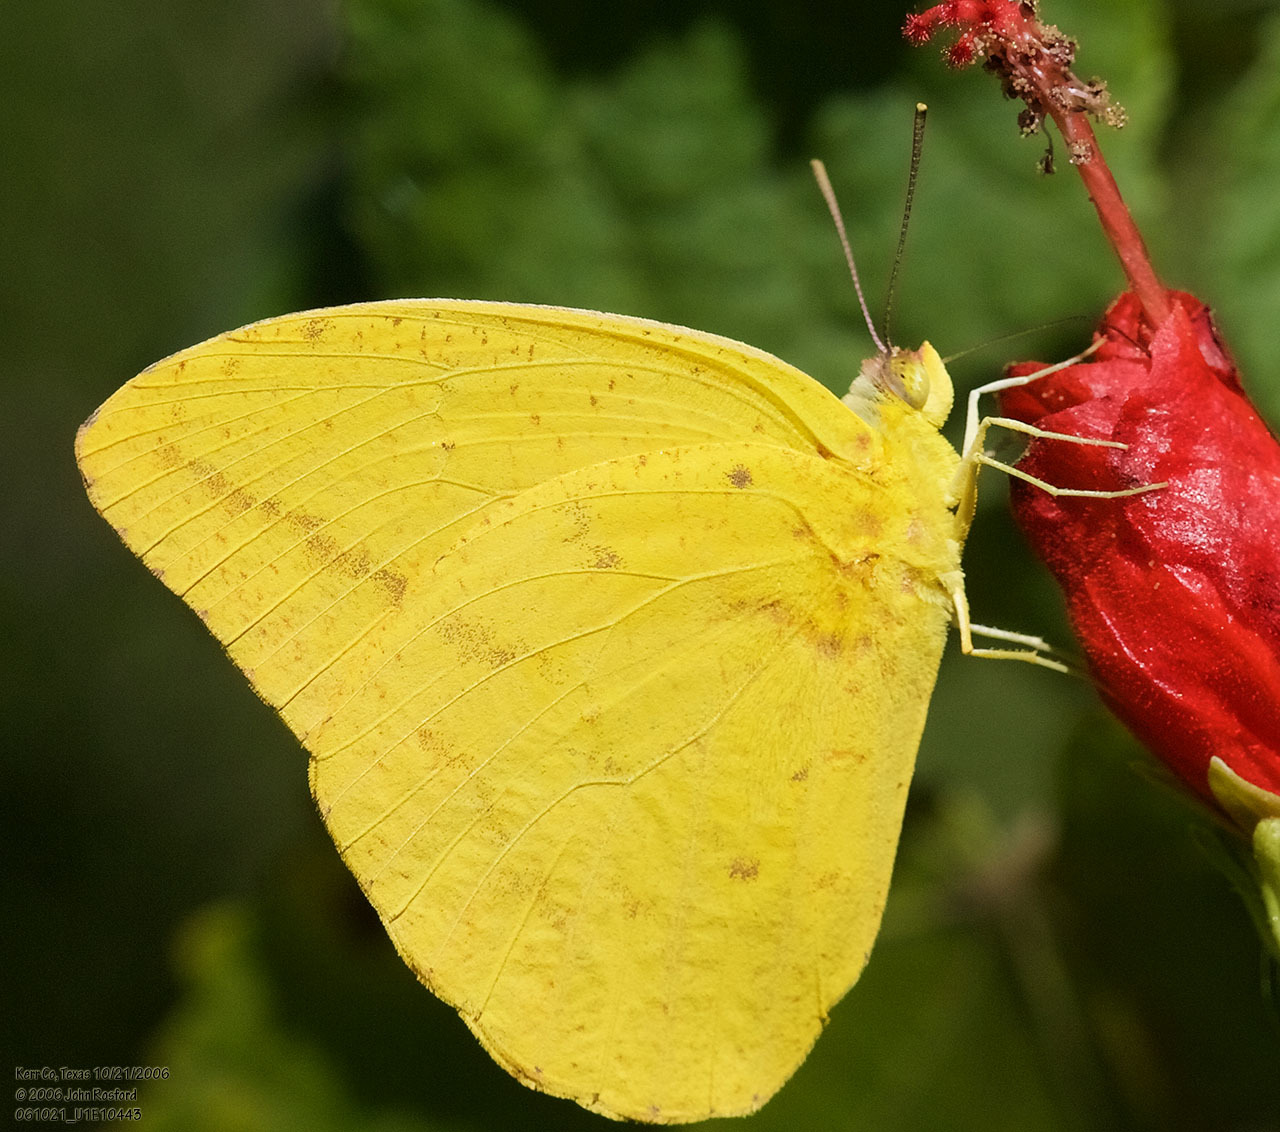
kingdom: Animalia
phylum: Arthropoda
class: Insecta
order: Lepidoptera
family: Pieridae
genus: Phoebis
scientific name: Phoebis agarithe
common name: Large orange sulphur
